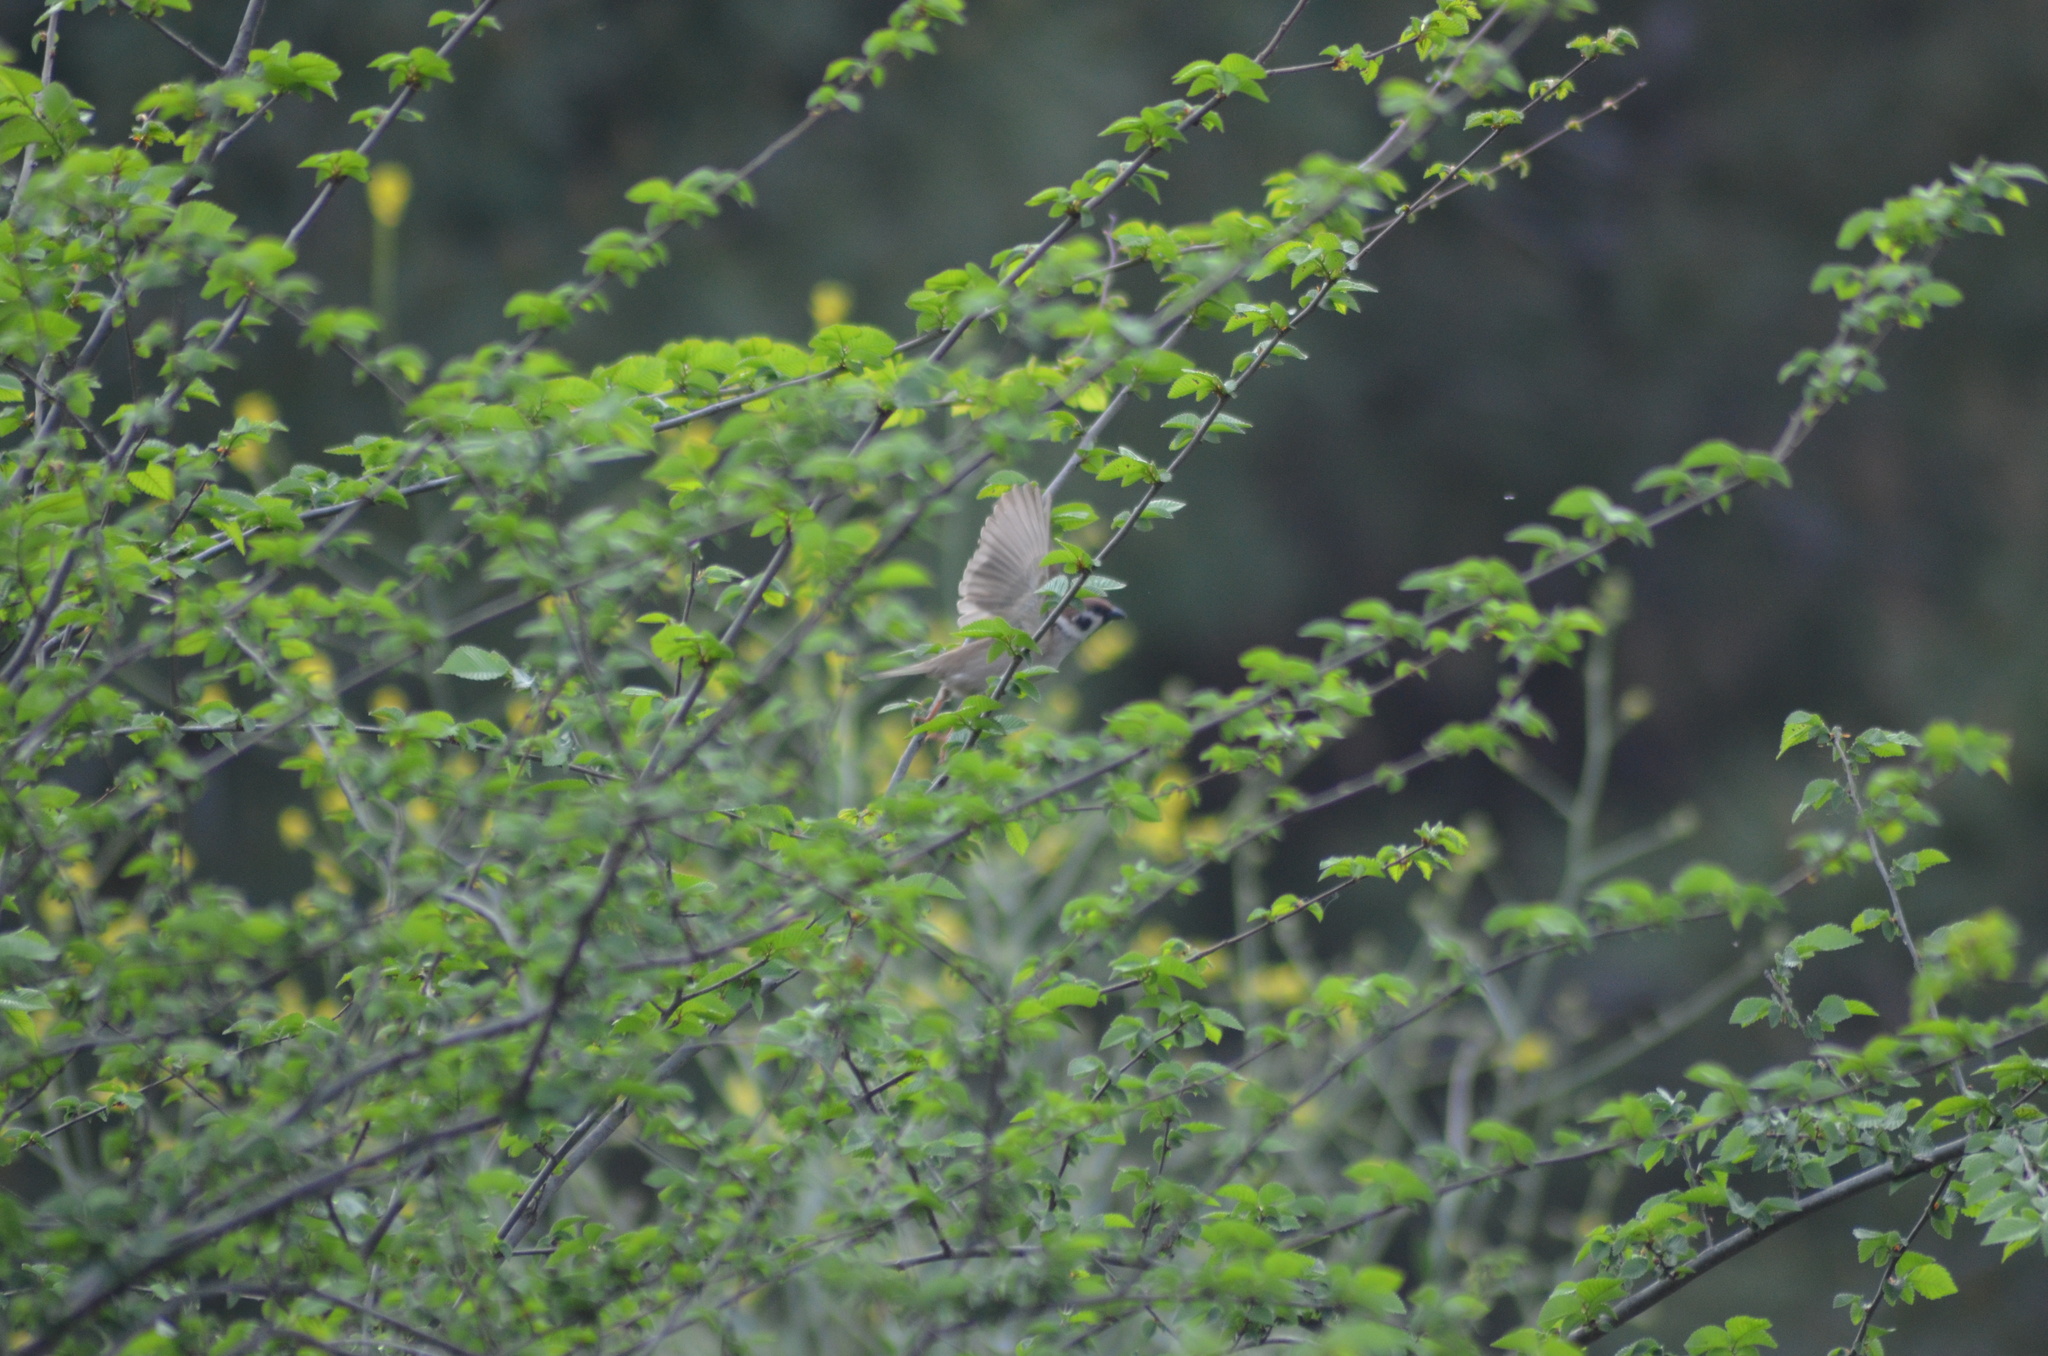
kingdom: Animalia
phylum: Chordata
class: Aves
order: Passeriformes
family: Passeridae
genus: Passer
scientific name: Passer montanus
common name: Eurasian tree sparrow
